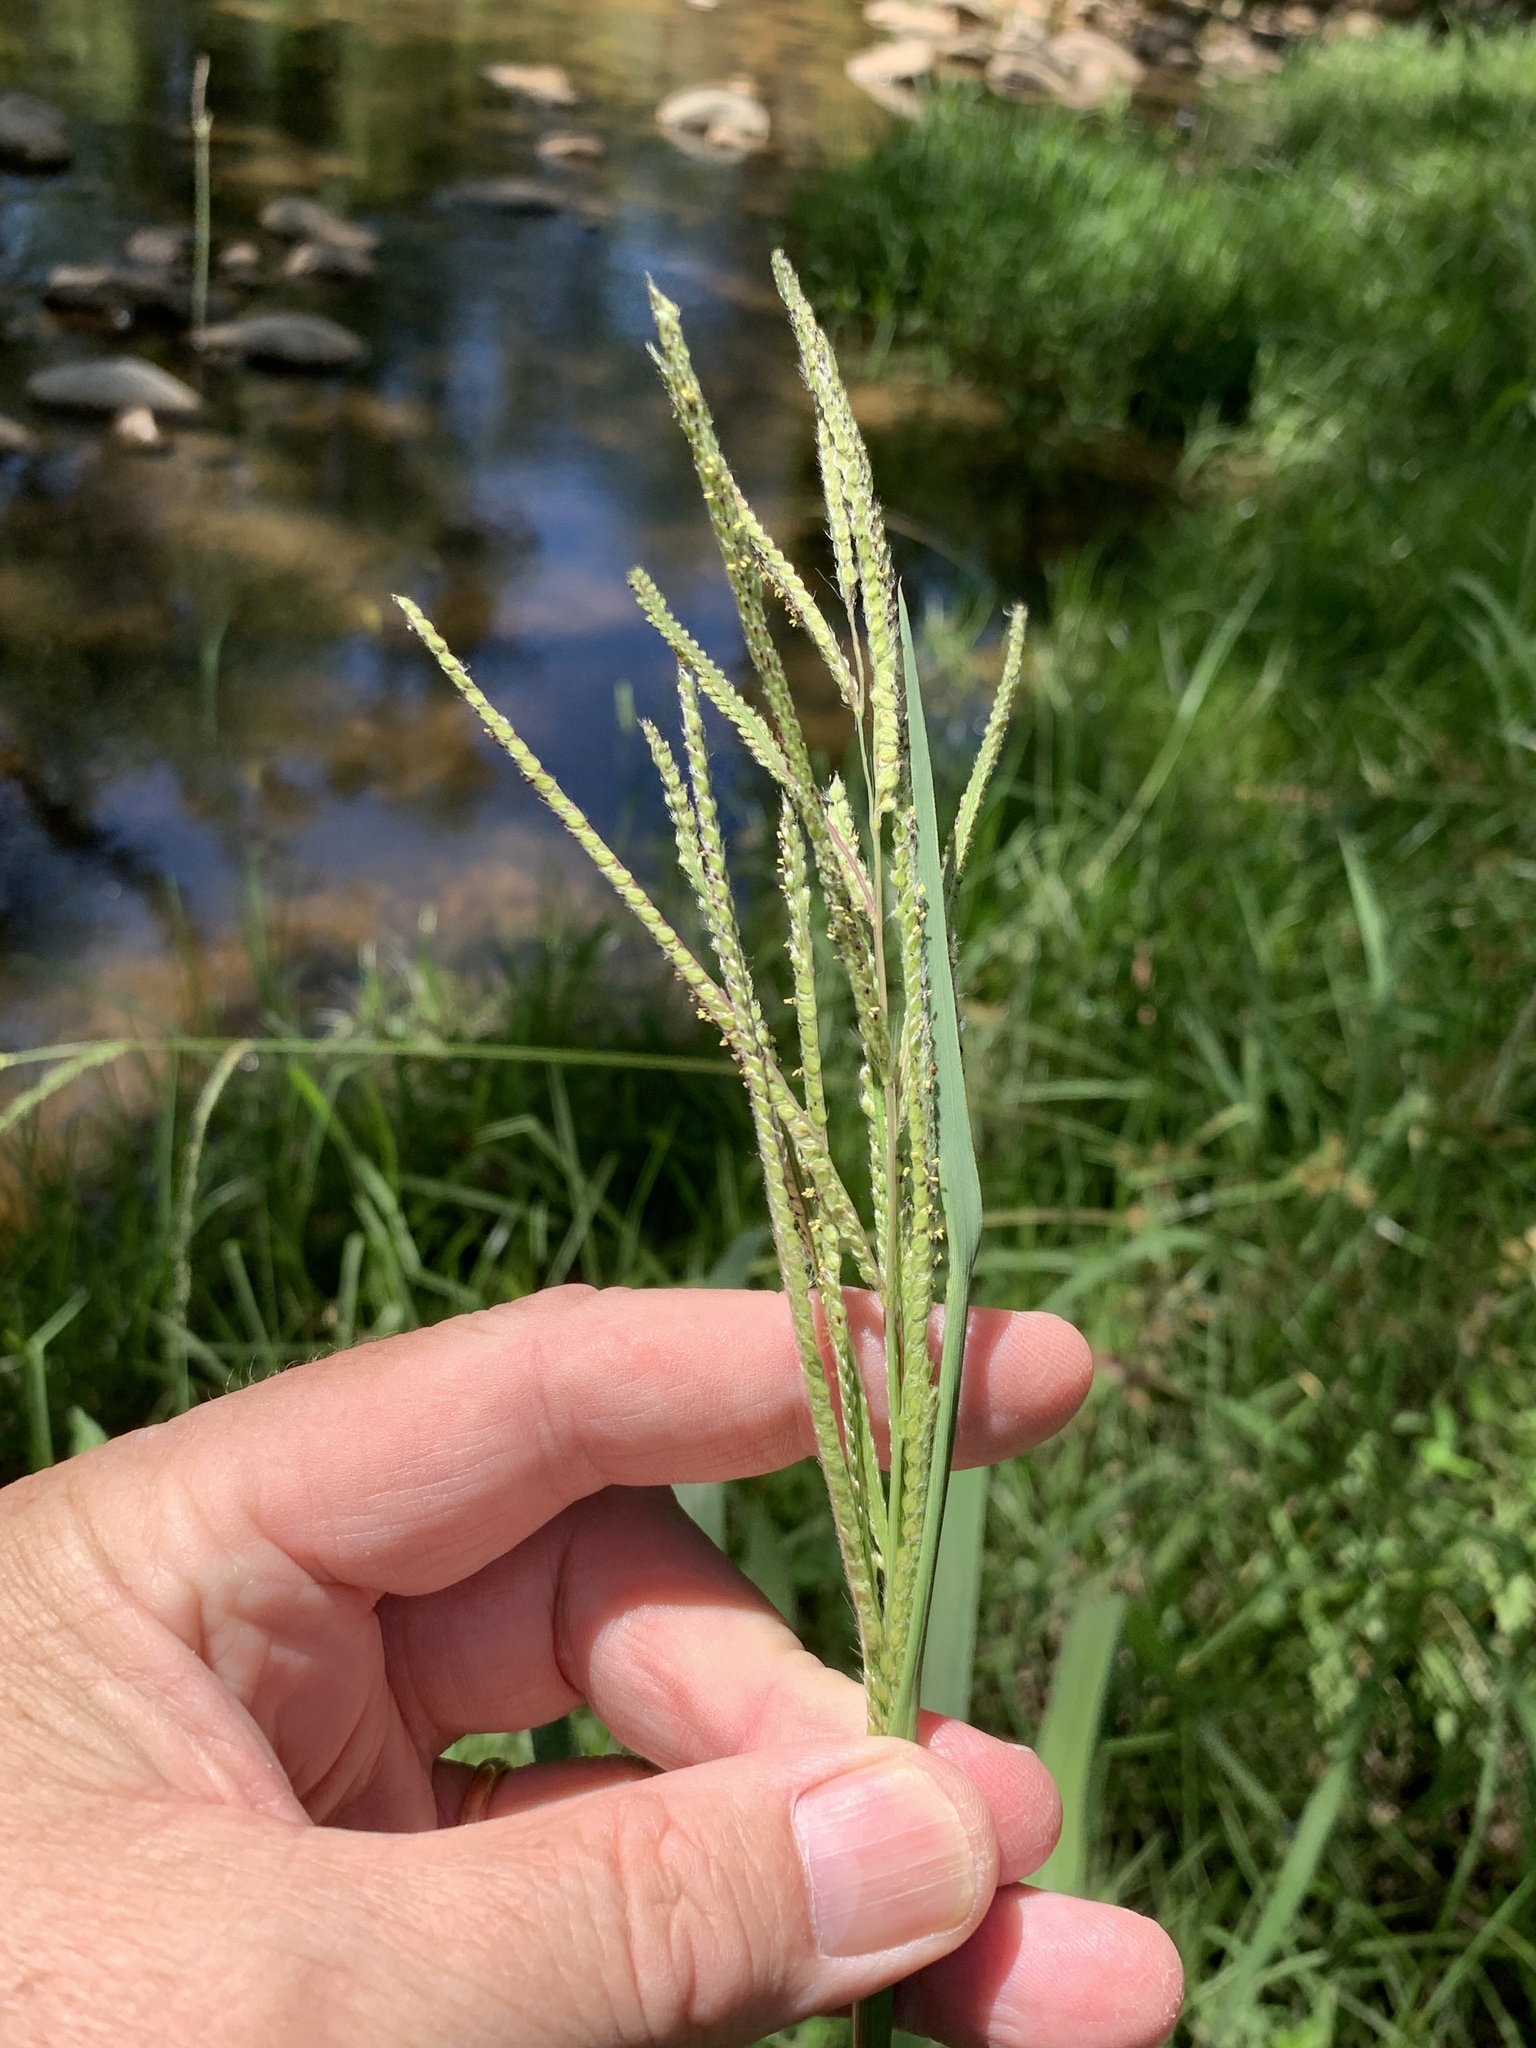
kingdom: Plantae
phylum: Tracheophyta
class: Liliopsida
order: Poales
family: Poaceae
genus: Paspalum
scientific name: Paspalum urvillei
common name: Vasey's grass
